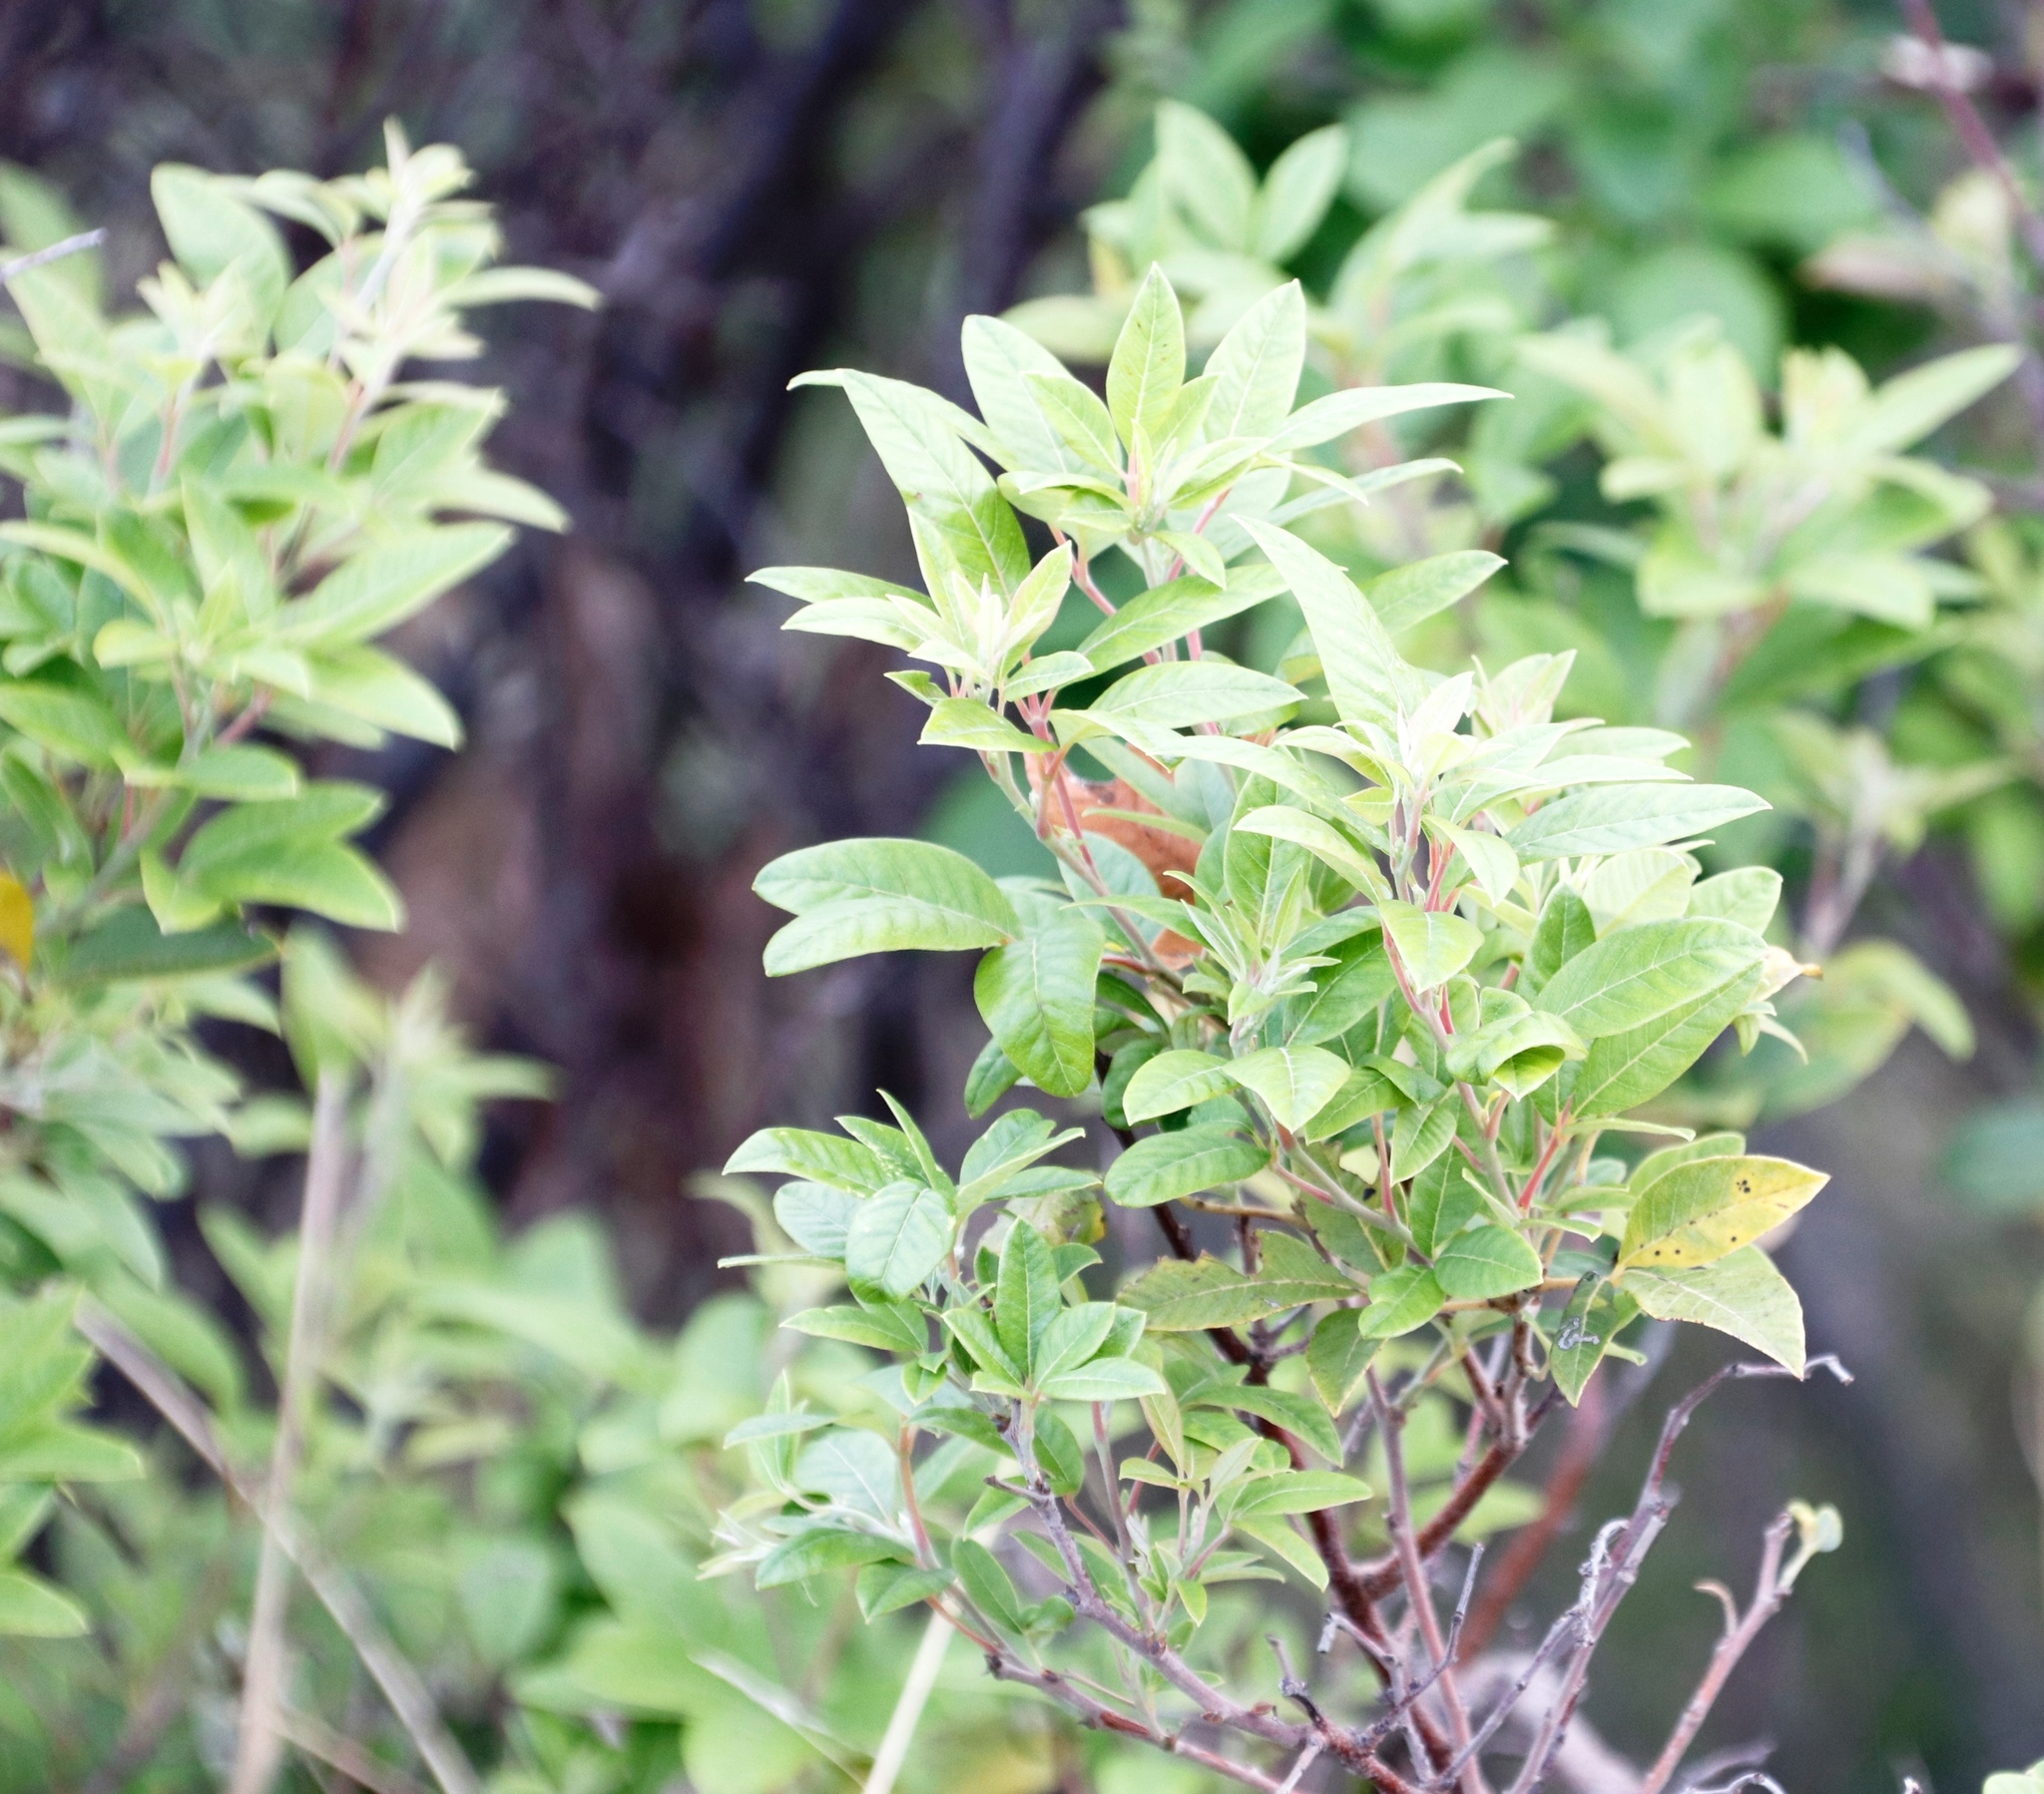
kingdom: Plantae
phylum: Tracheophyta
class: Magnoliopsida
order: Sapindales
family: Anacardiaceae
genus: Searsia
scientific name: Searsia tomentosa
